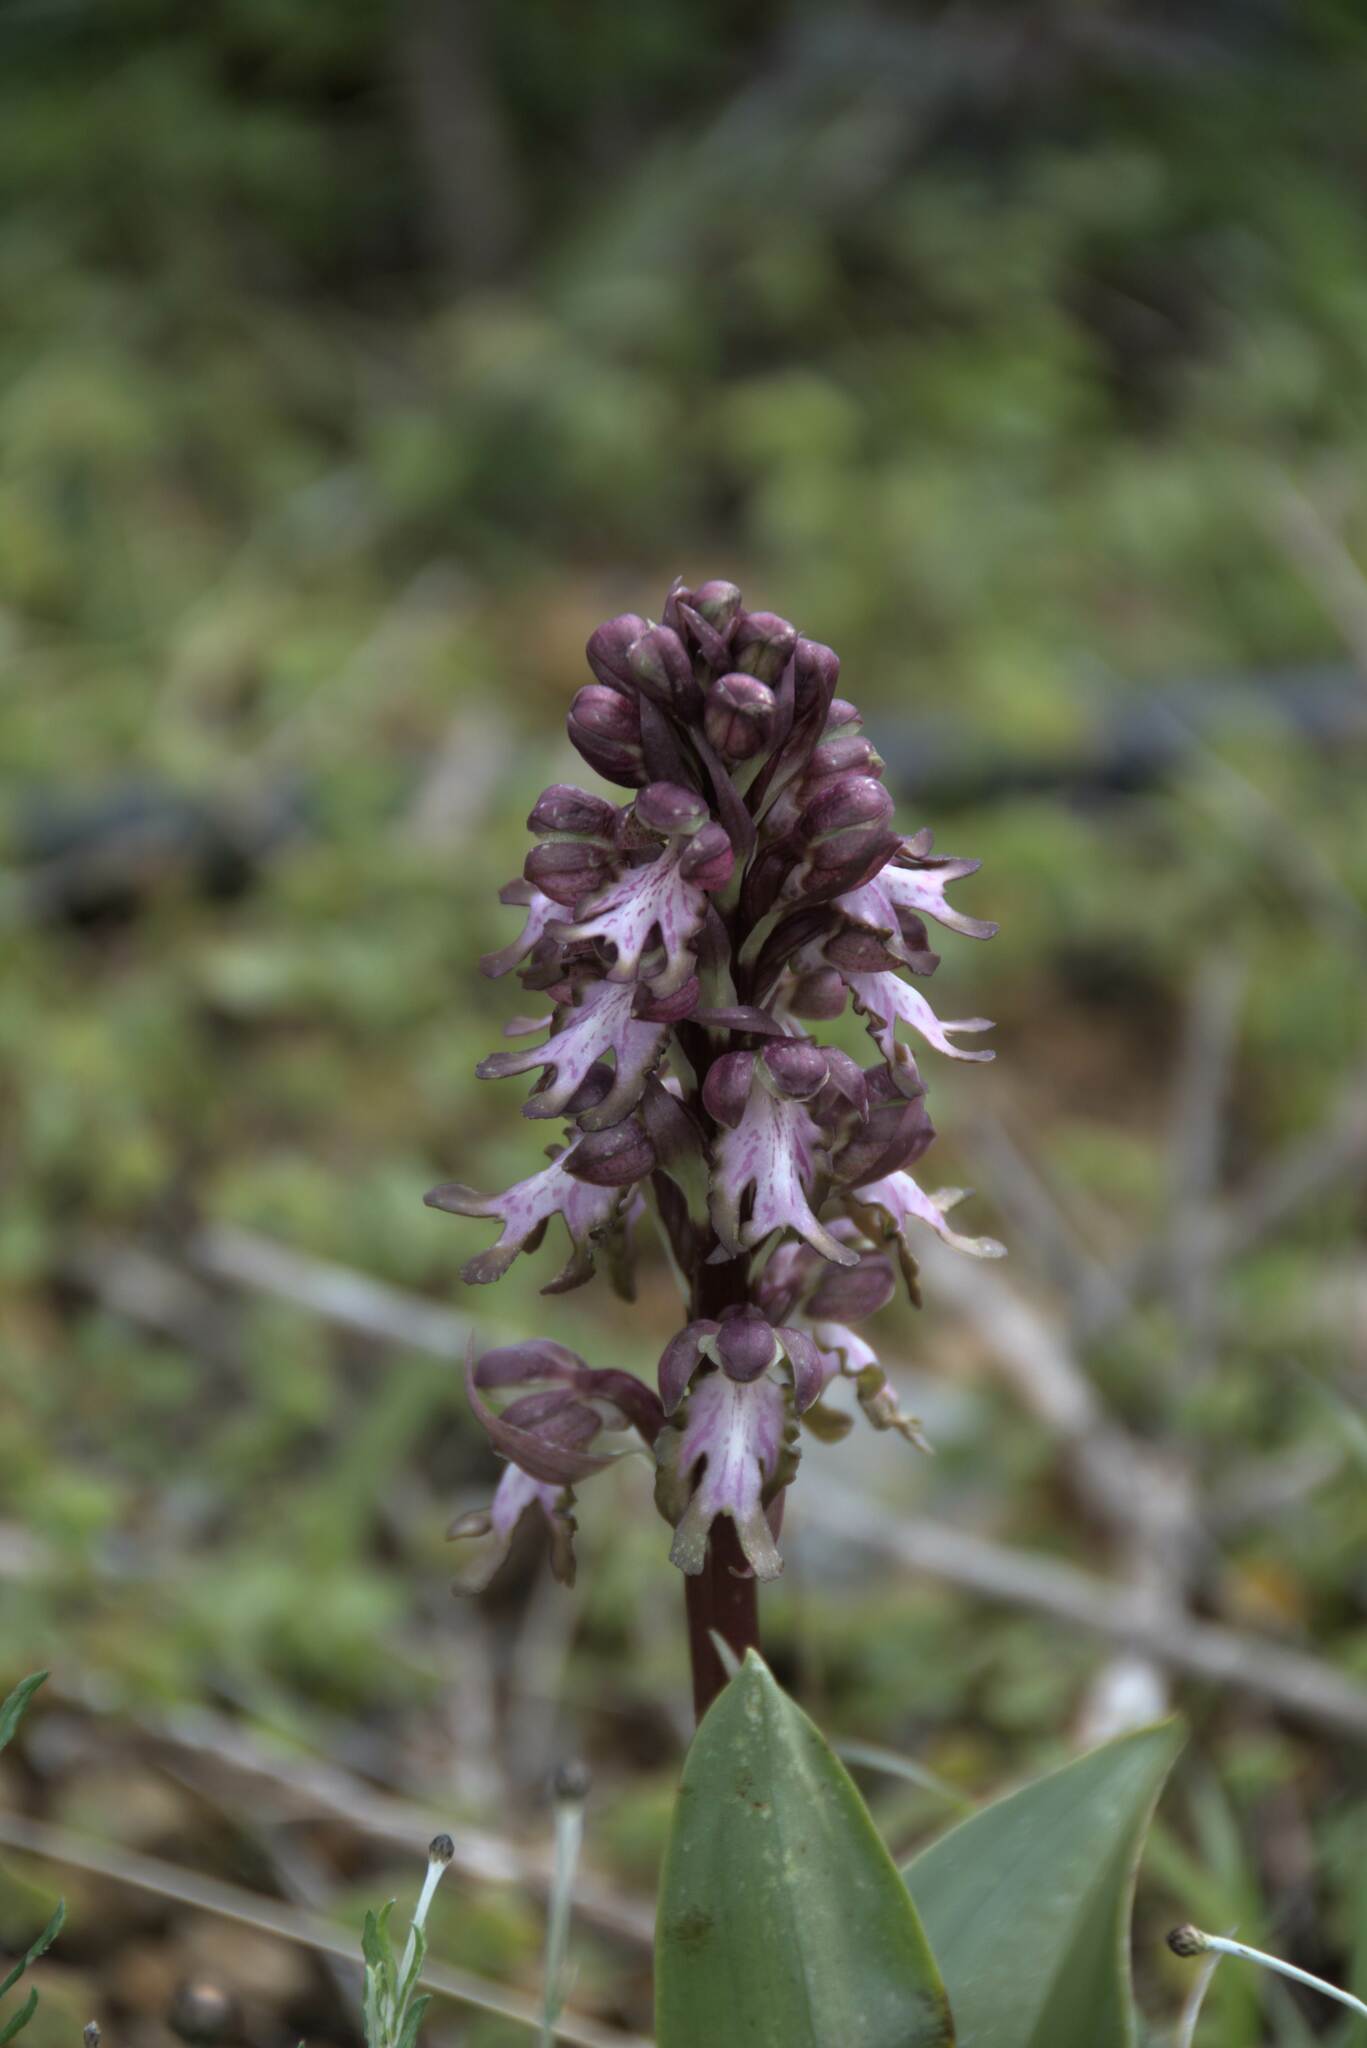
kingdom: Plantae
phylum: Tracheophyta
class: Liliopsida
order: Asparagales
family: Orchidaceae
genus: Himantoglossum
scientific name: Himantoglossum robertianum
